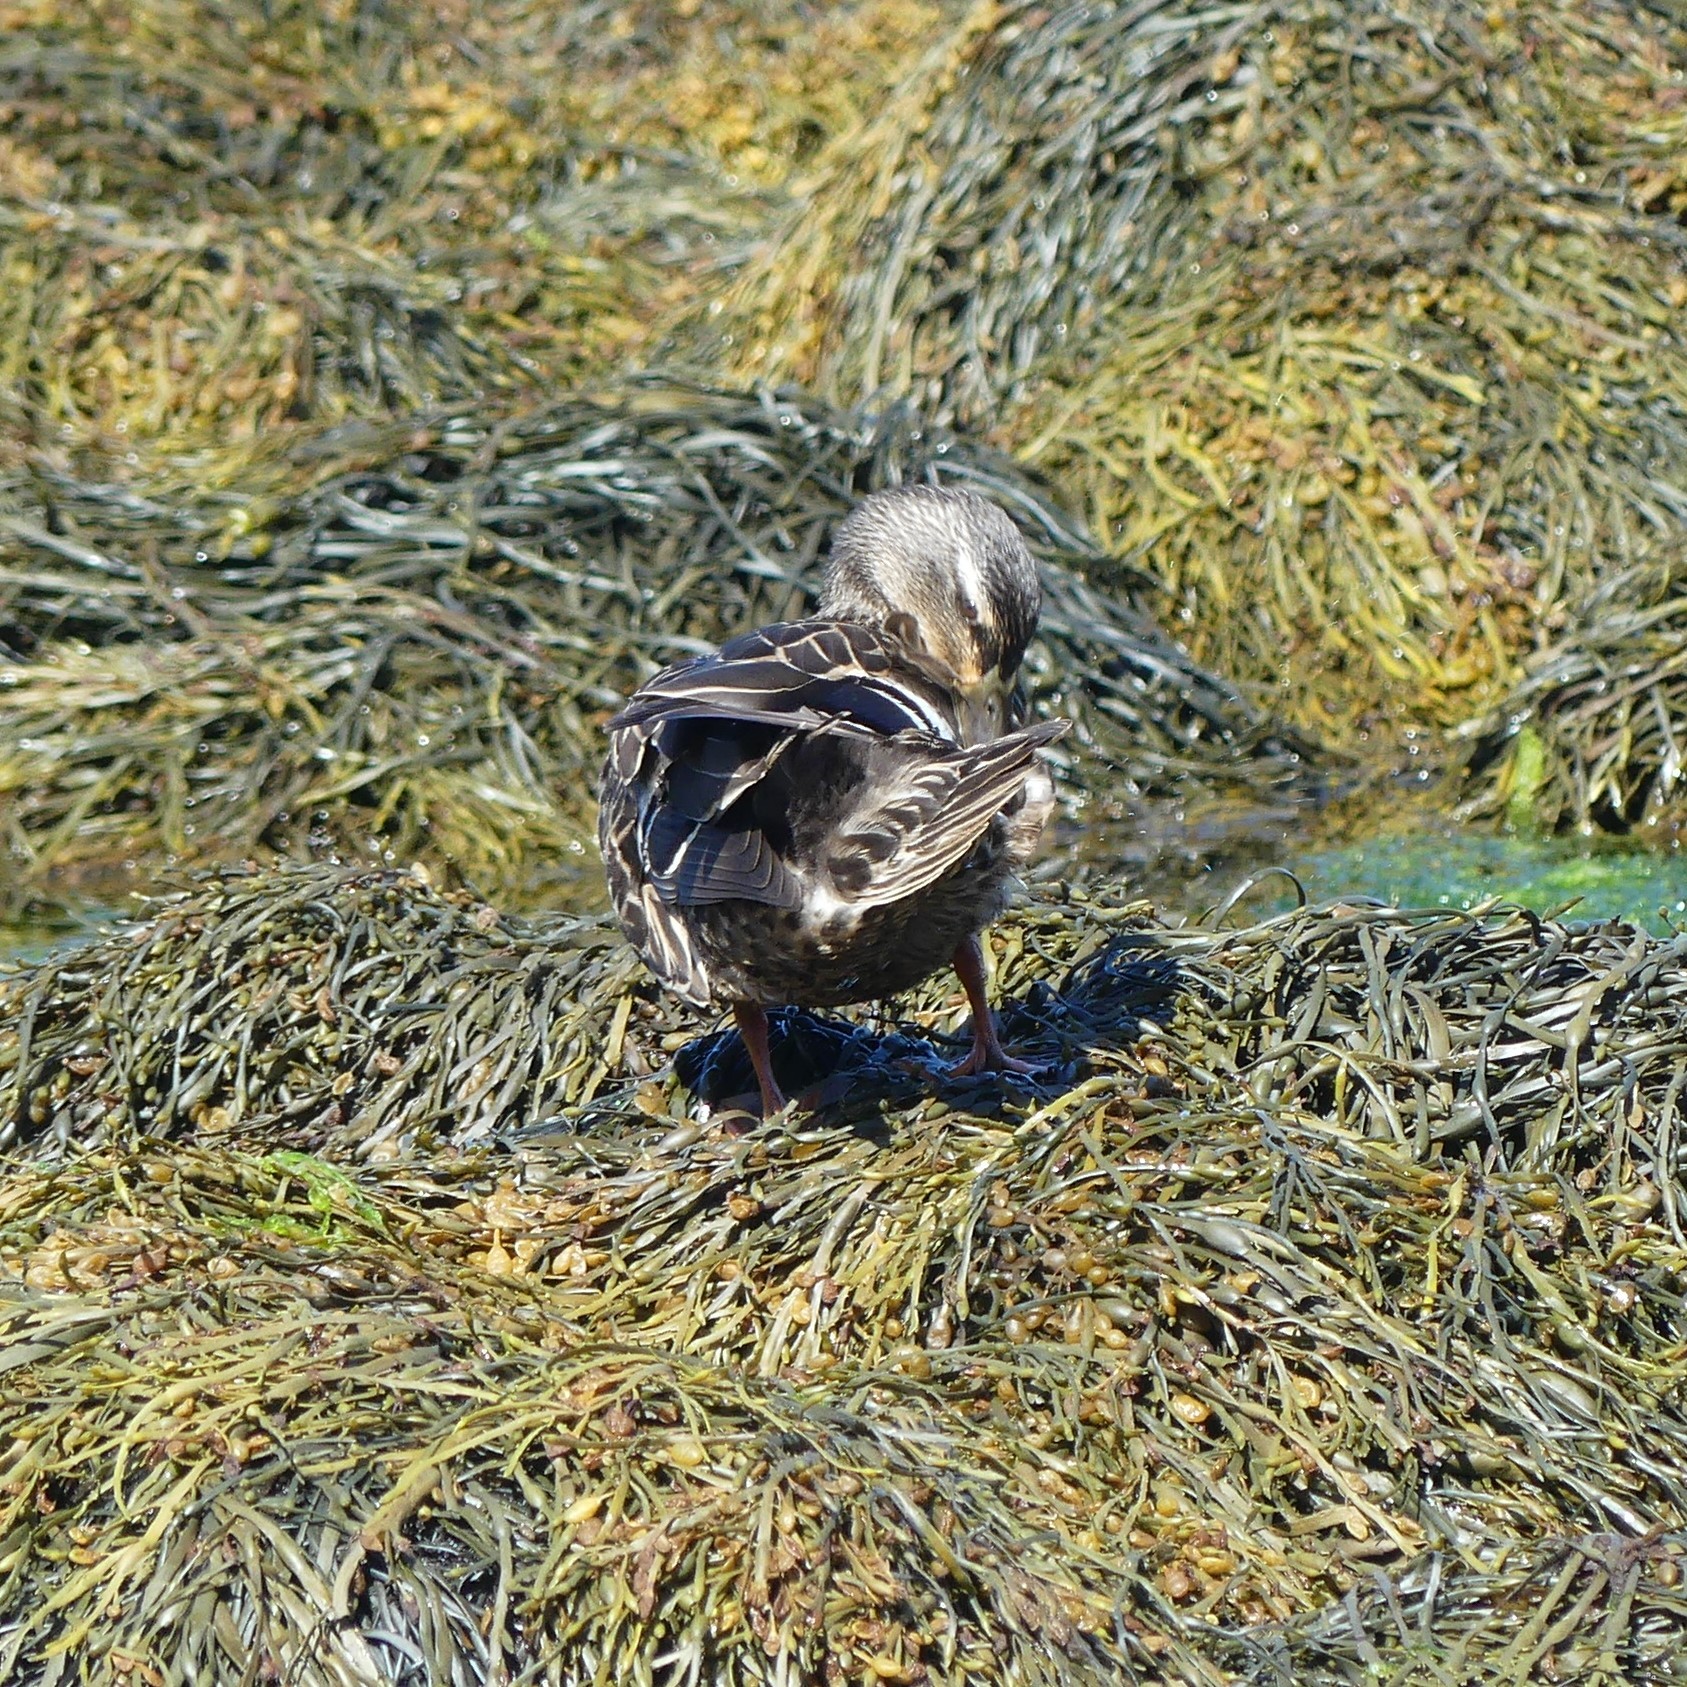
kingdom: Animalia
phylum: Chordata
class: Aves
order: Anseriformes
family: Anatidae
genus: Anas
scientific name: Anas platyrhynchos
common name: Mallard
